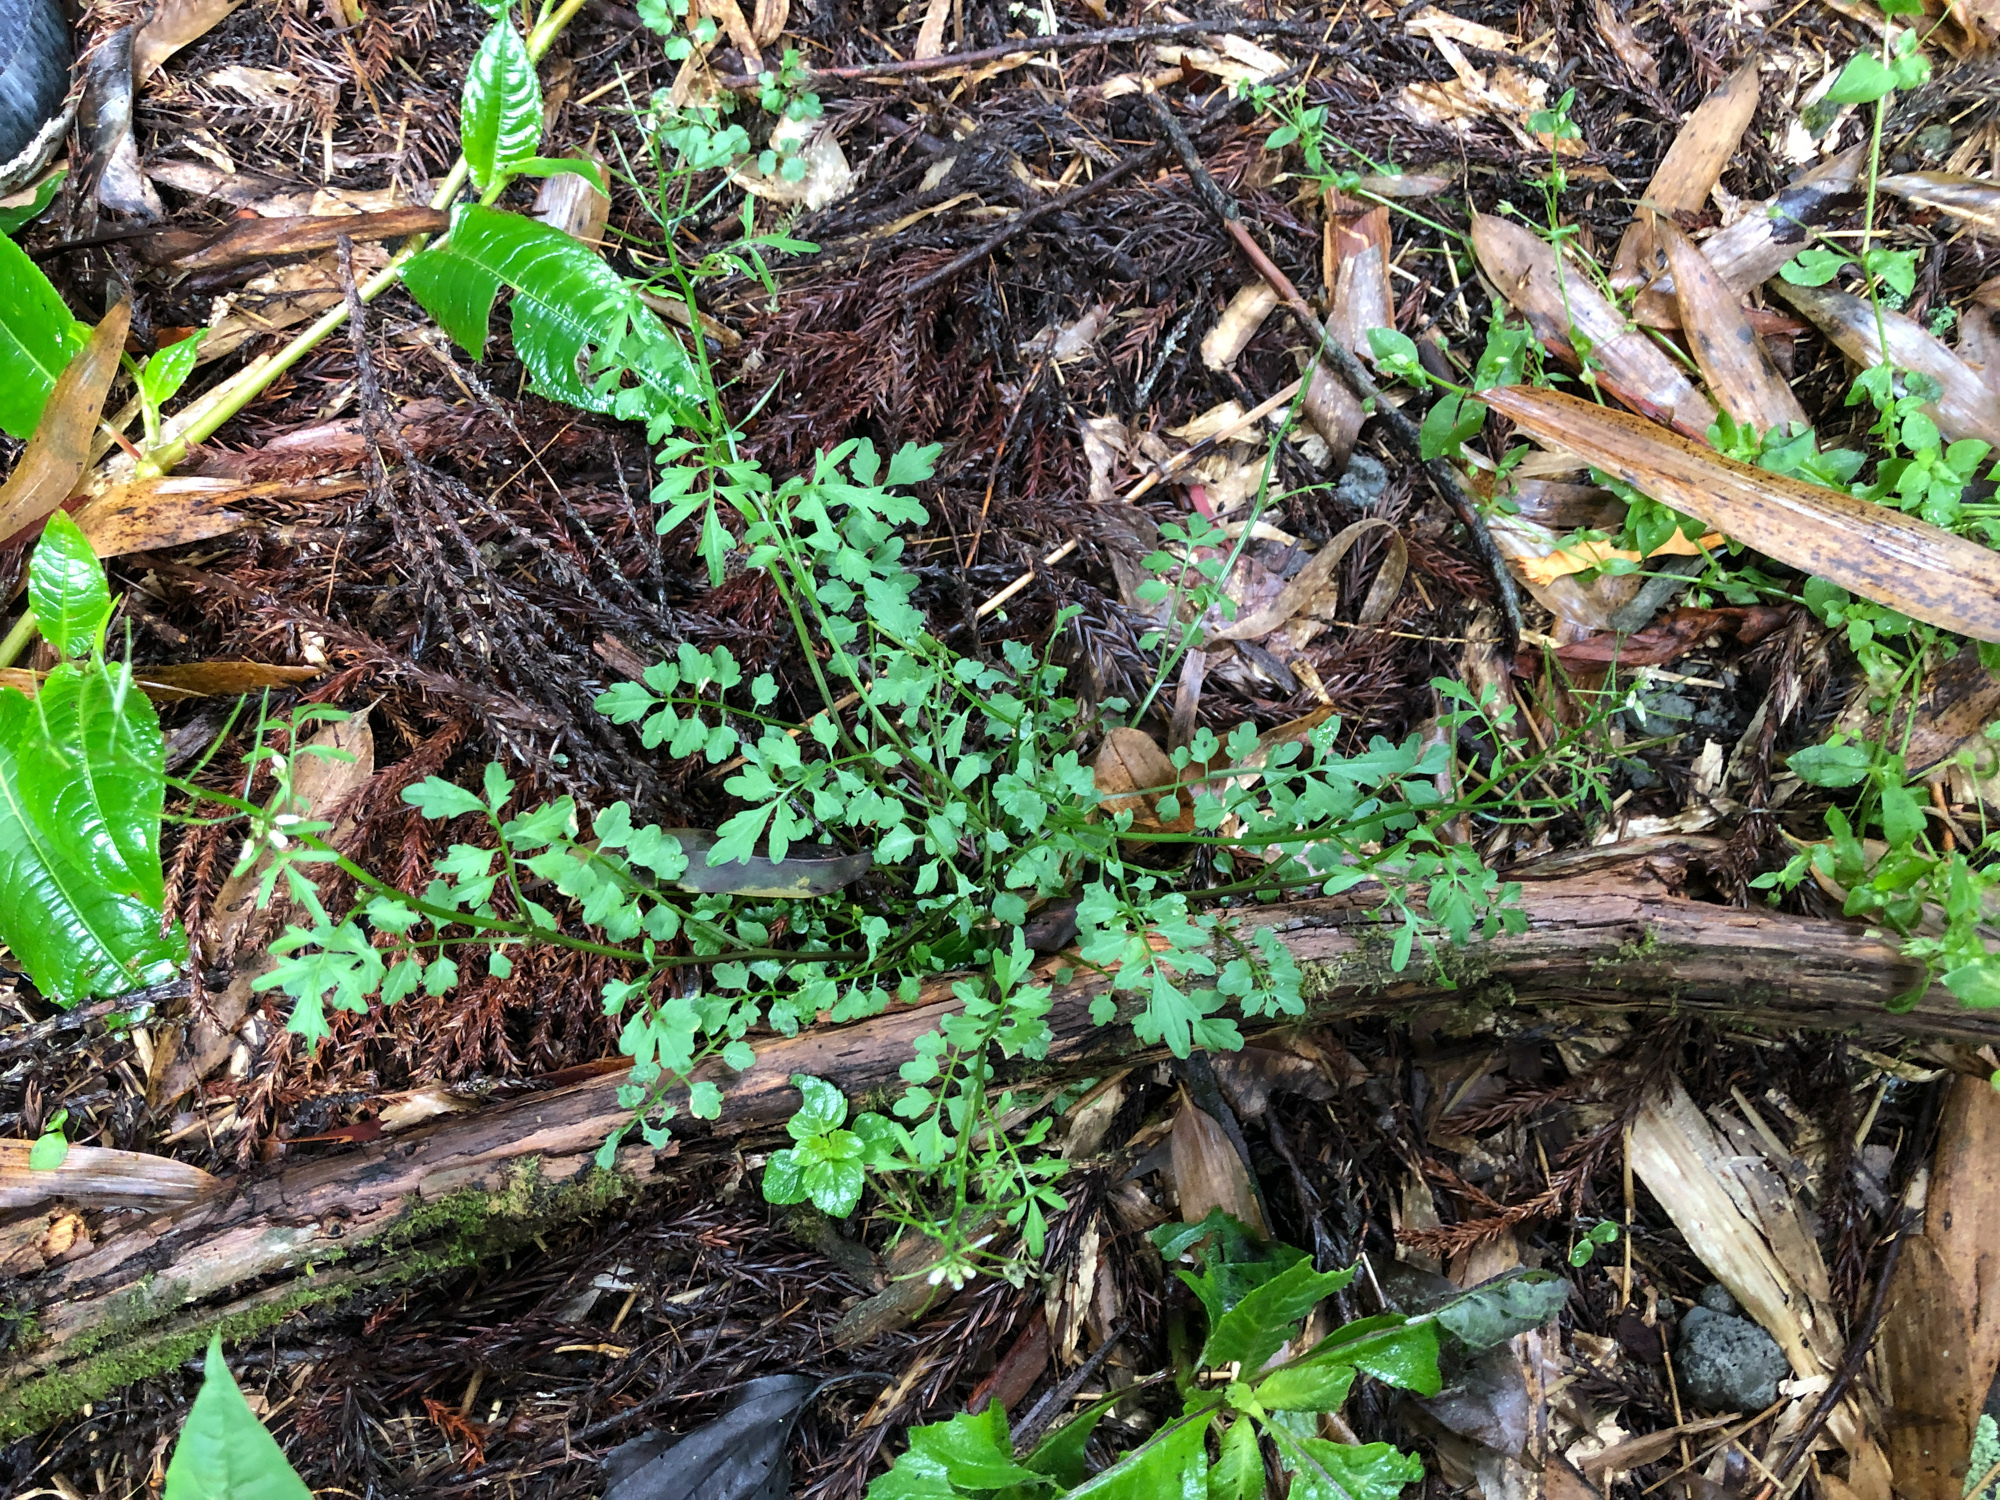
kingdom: Plantae
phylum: Tracheophyta
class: Magnoliopsida
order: Brassicales
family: Brassicaceae
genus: Cardamine
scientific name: Cardamine flexuosa
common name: Woodland bittercress
